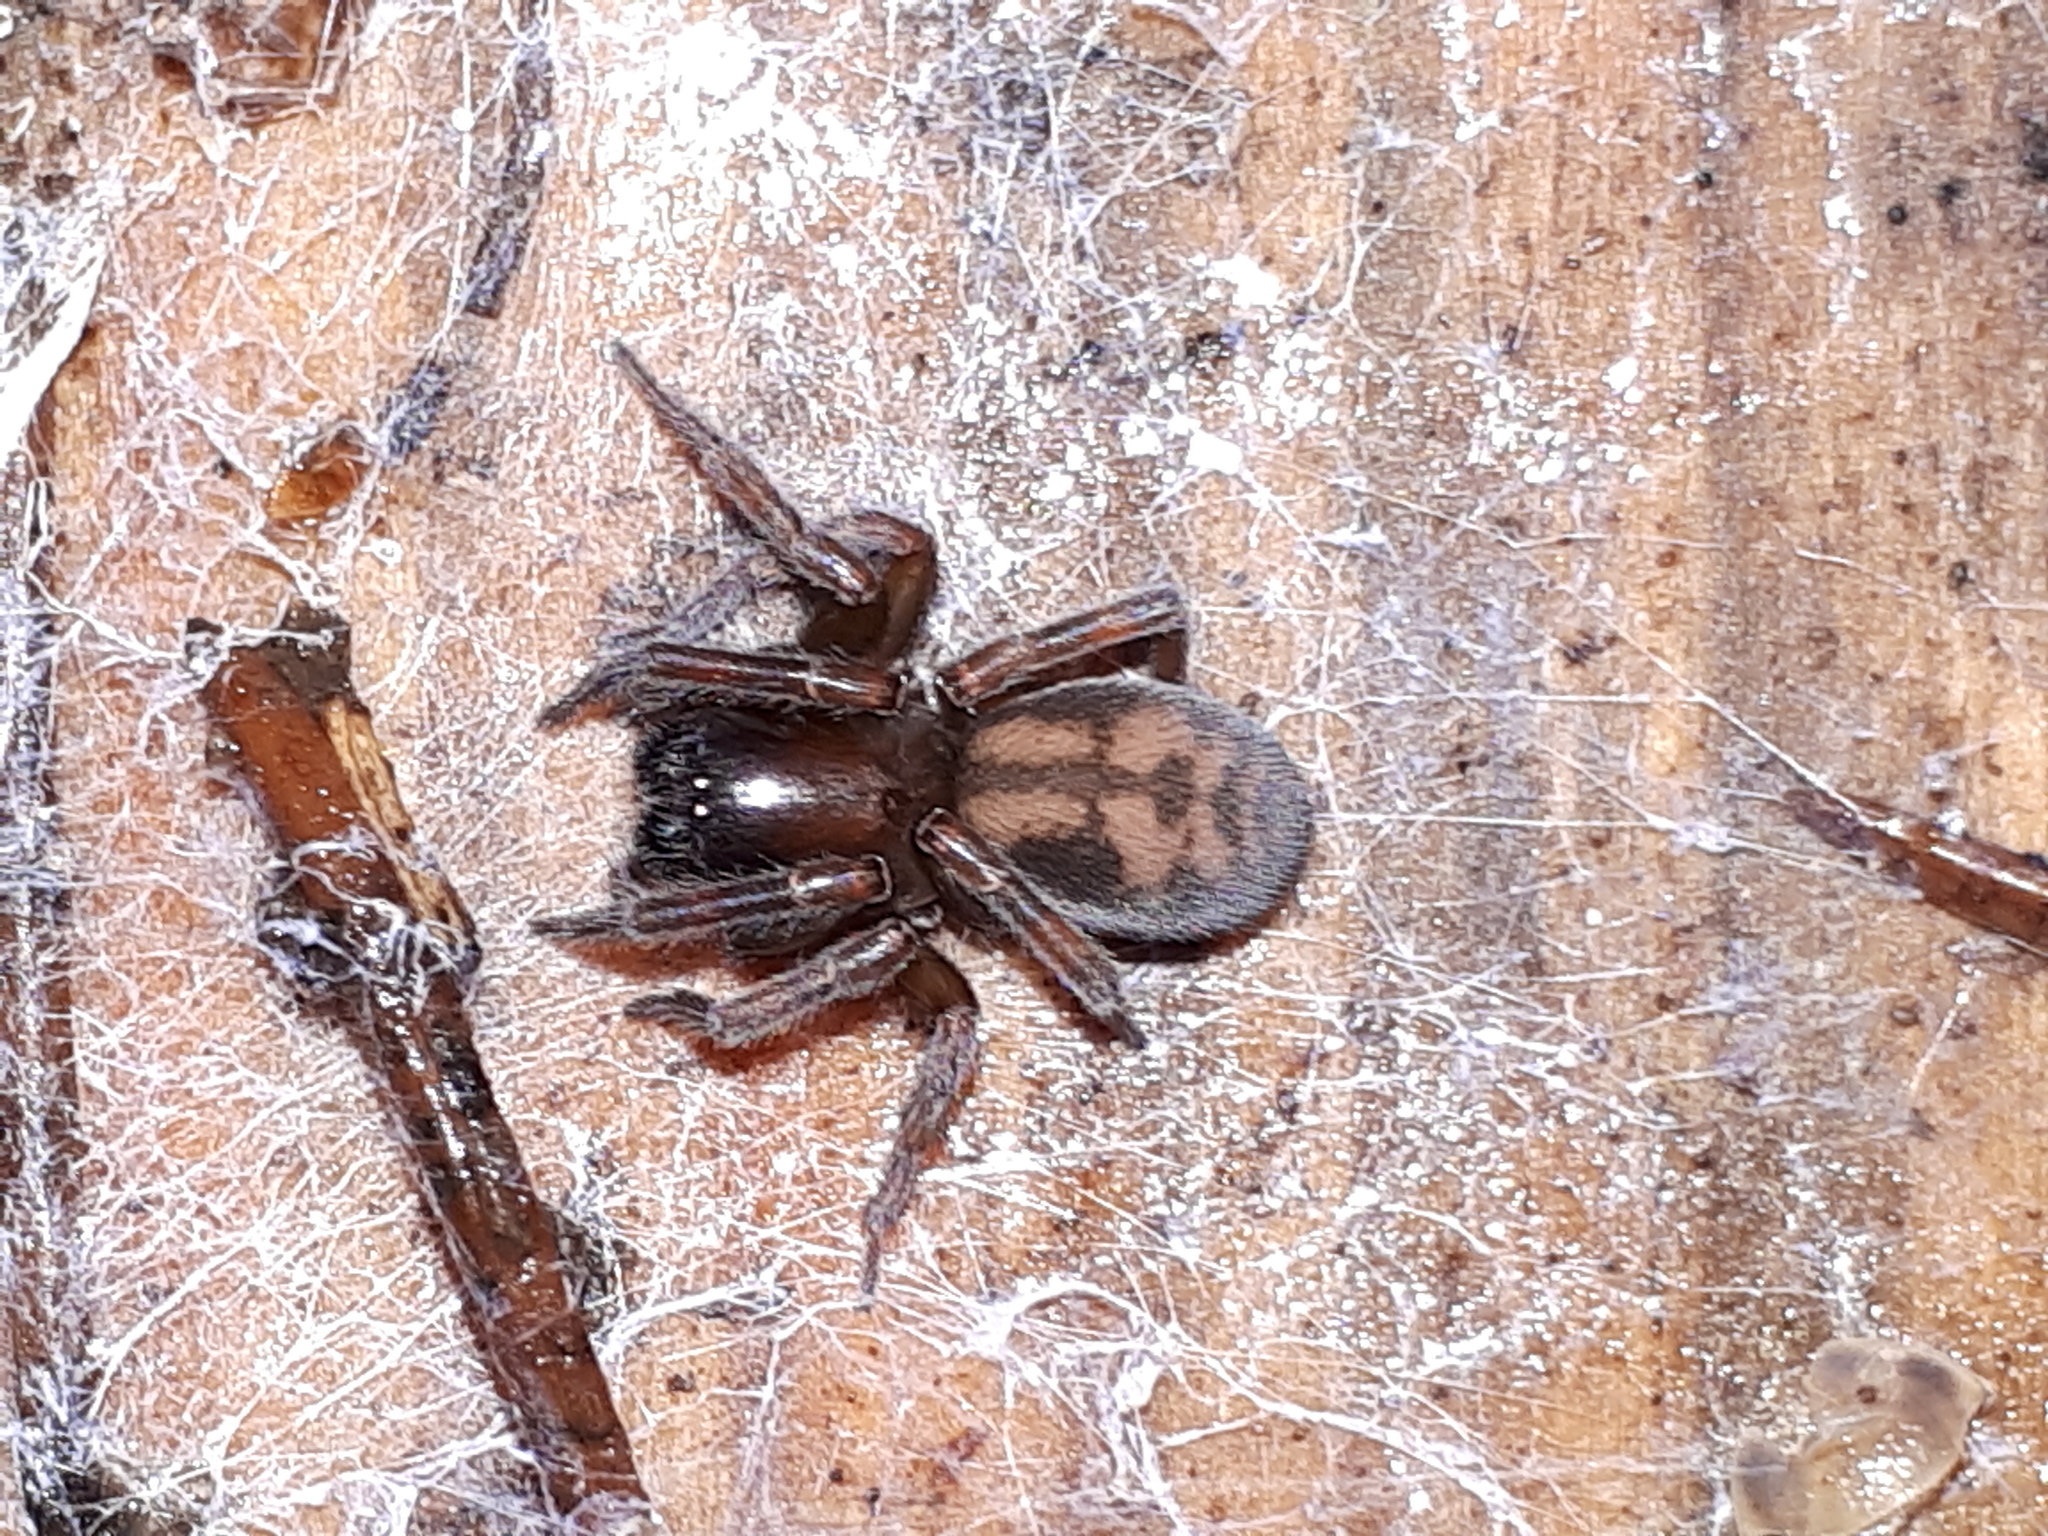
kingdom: Animalia
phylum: Arthropoda
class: Arachnida
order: Araneae
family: Amaurobiidae
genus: Callobius
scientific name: Callobius claustrarius
